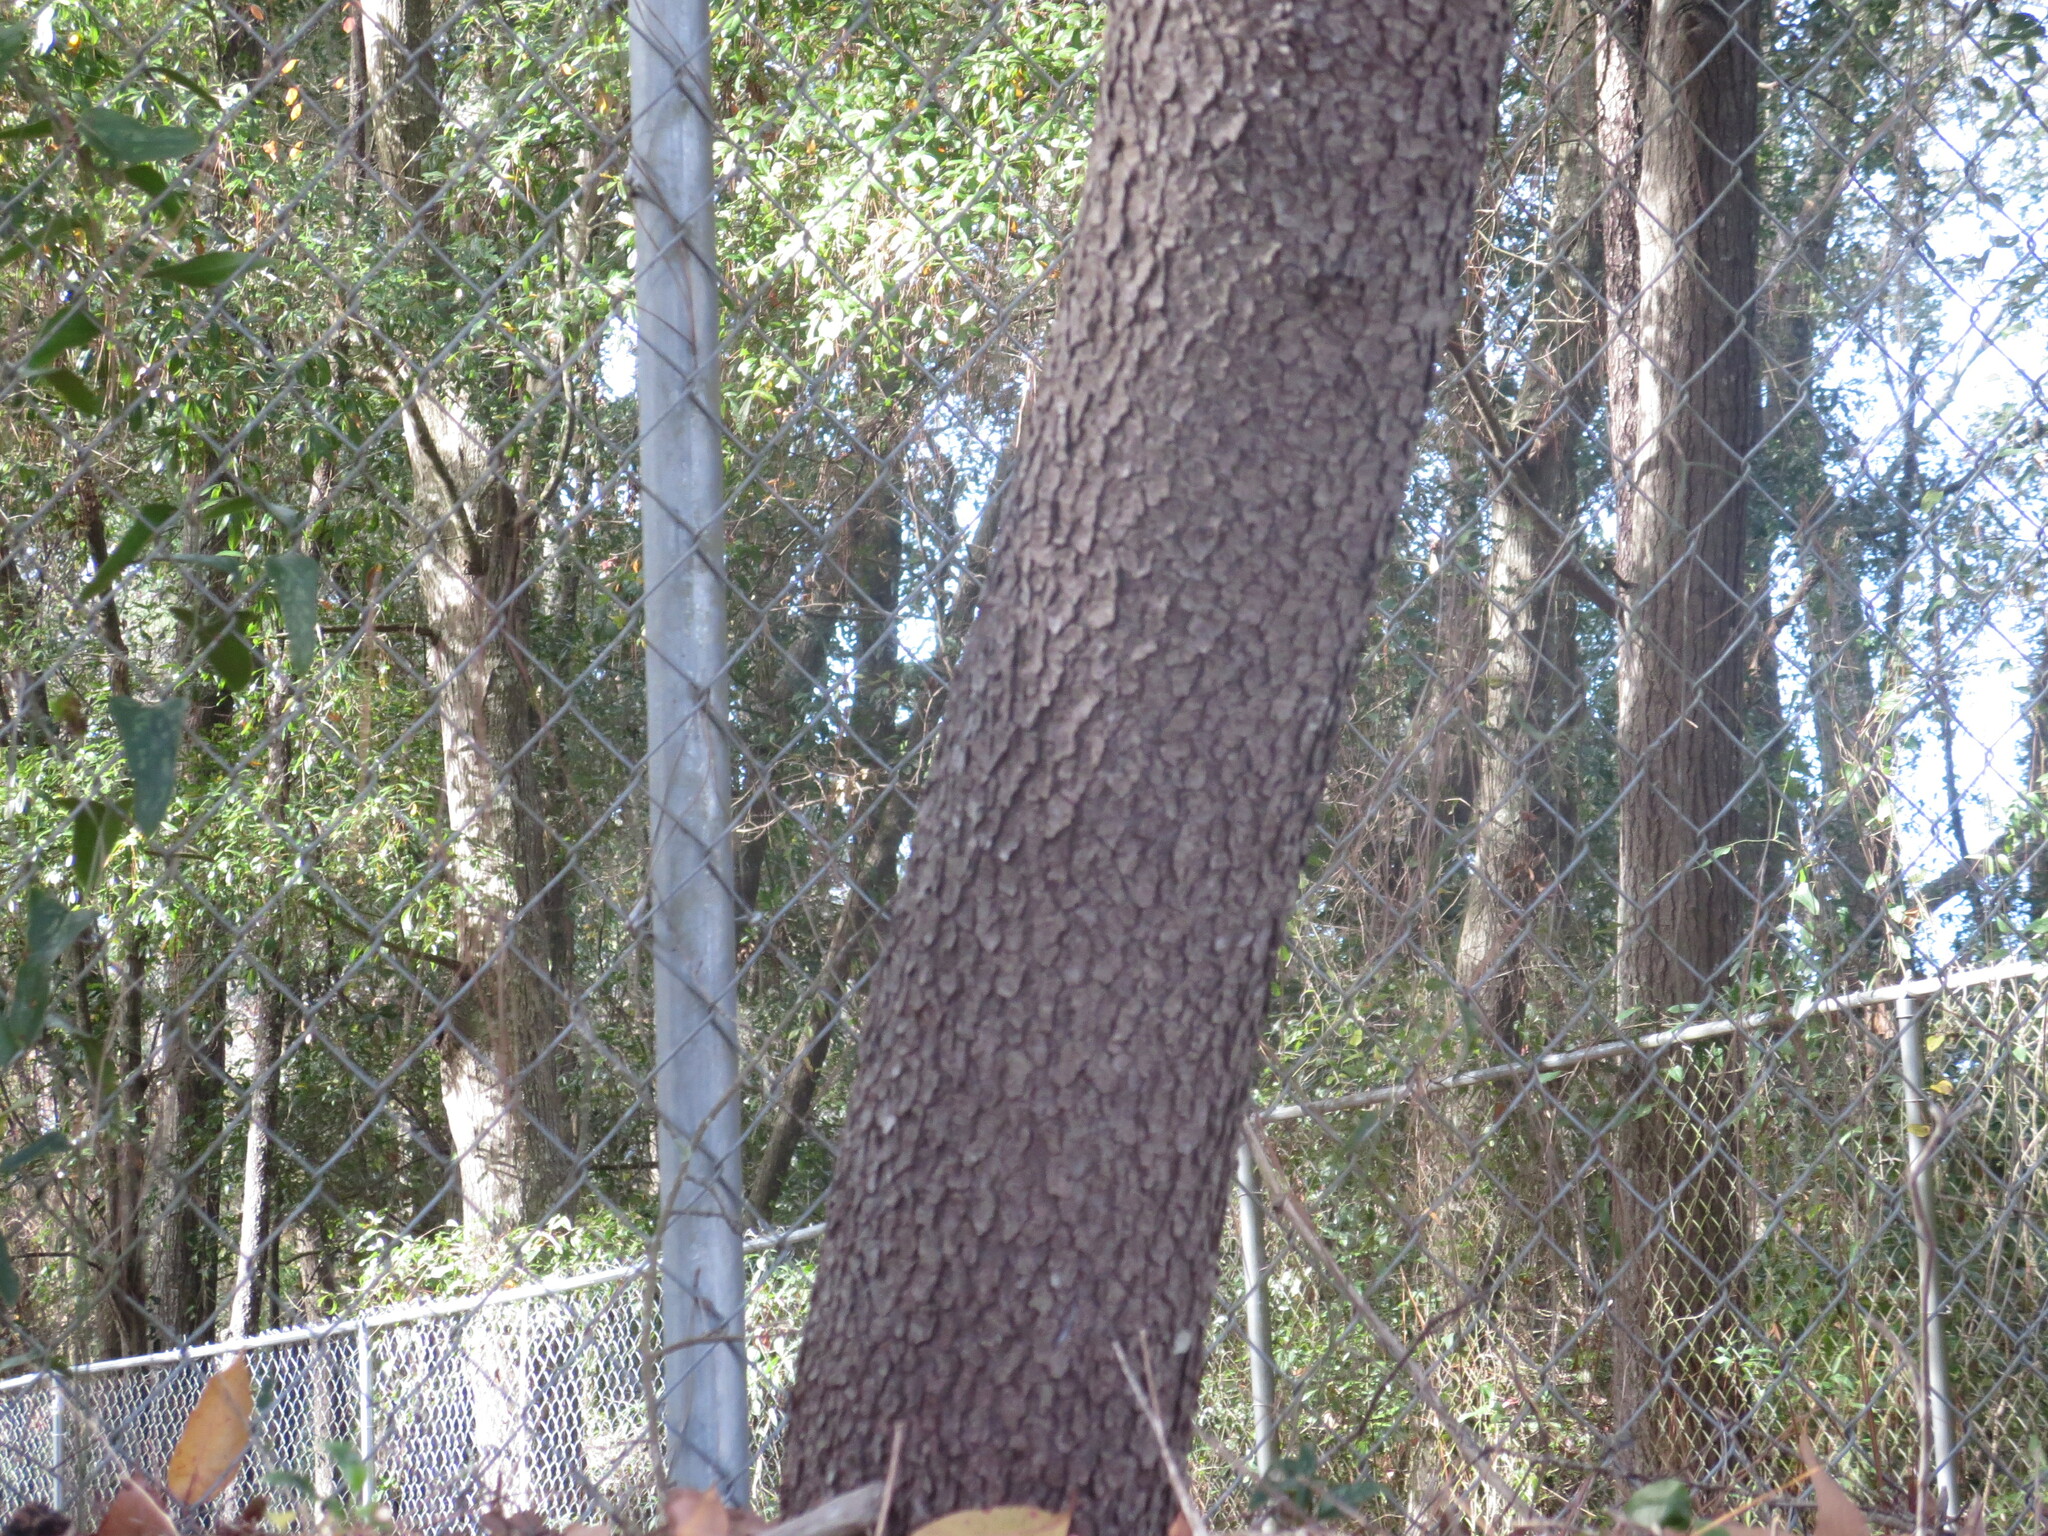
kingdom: Plantae
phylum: Tracheophyta
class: Magnoliopsida
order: Rosales
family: Rosaceae
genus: Prunus
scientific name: Prunus serotina
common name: Black cherry
